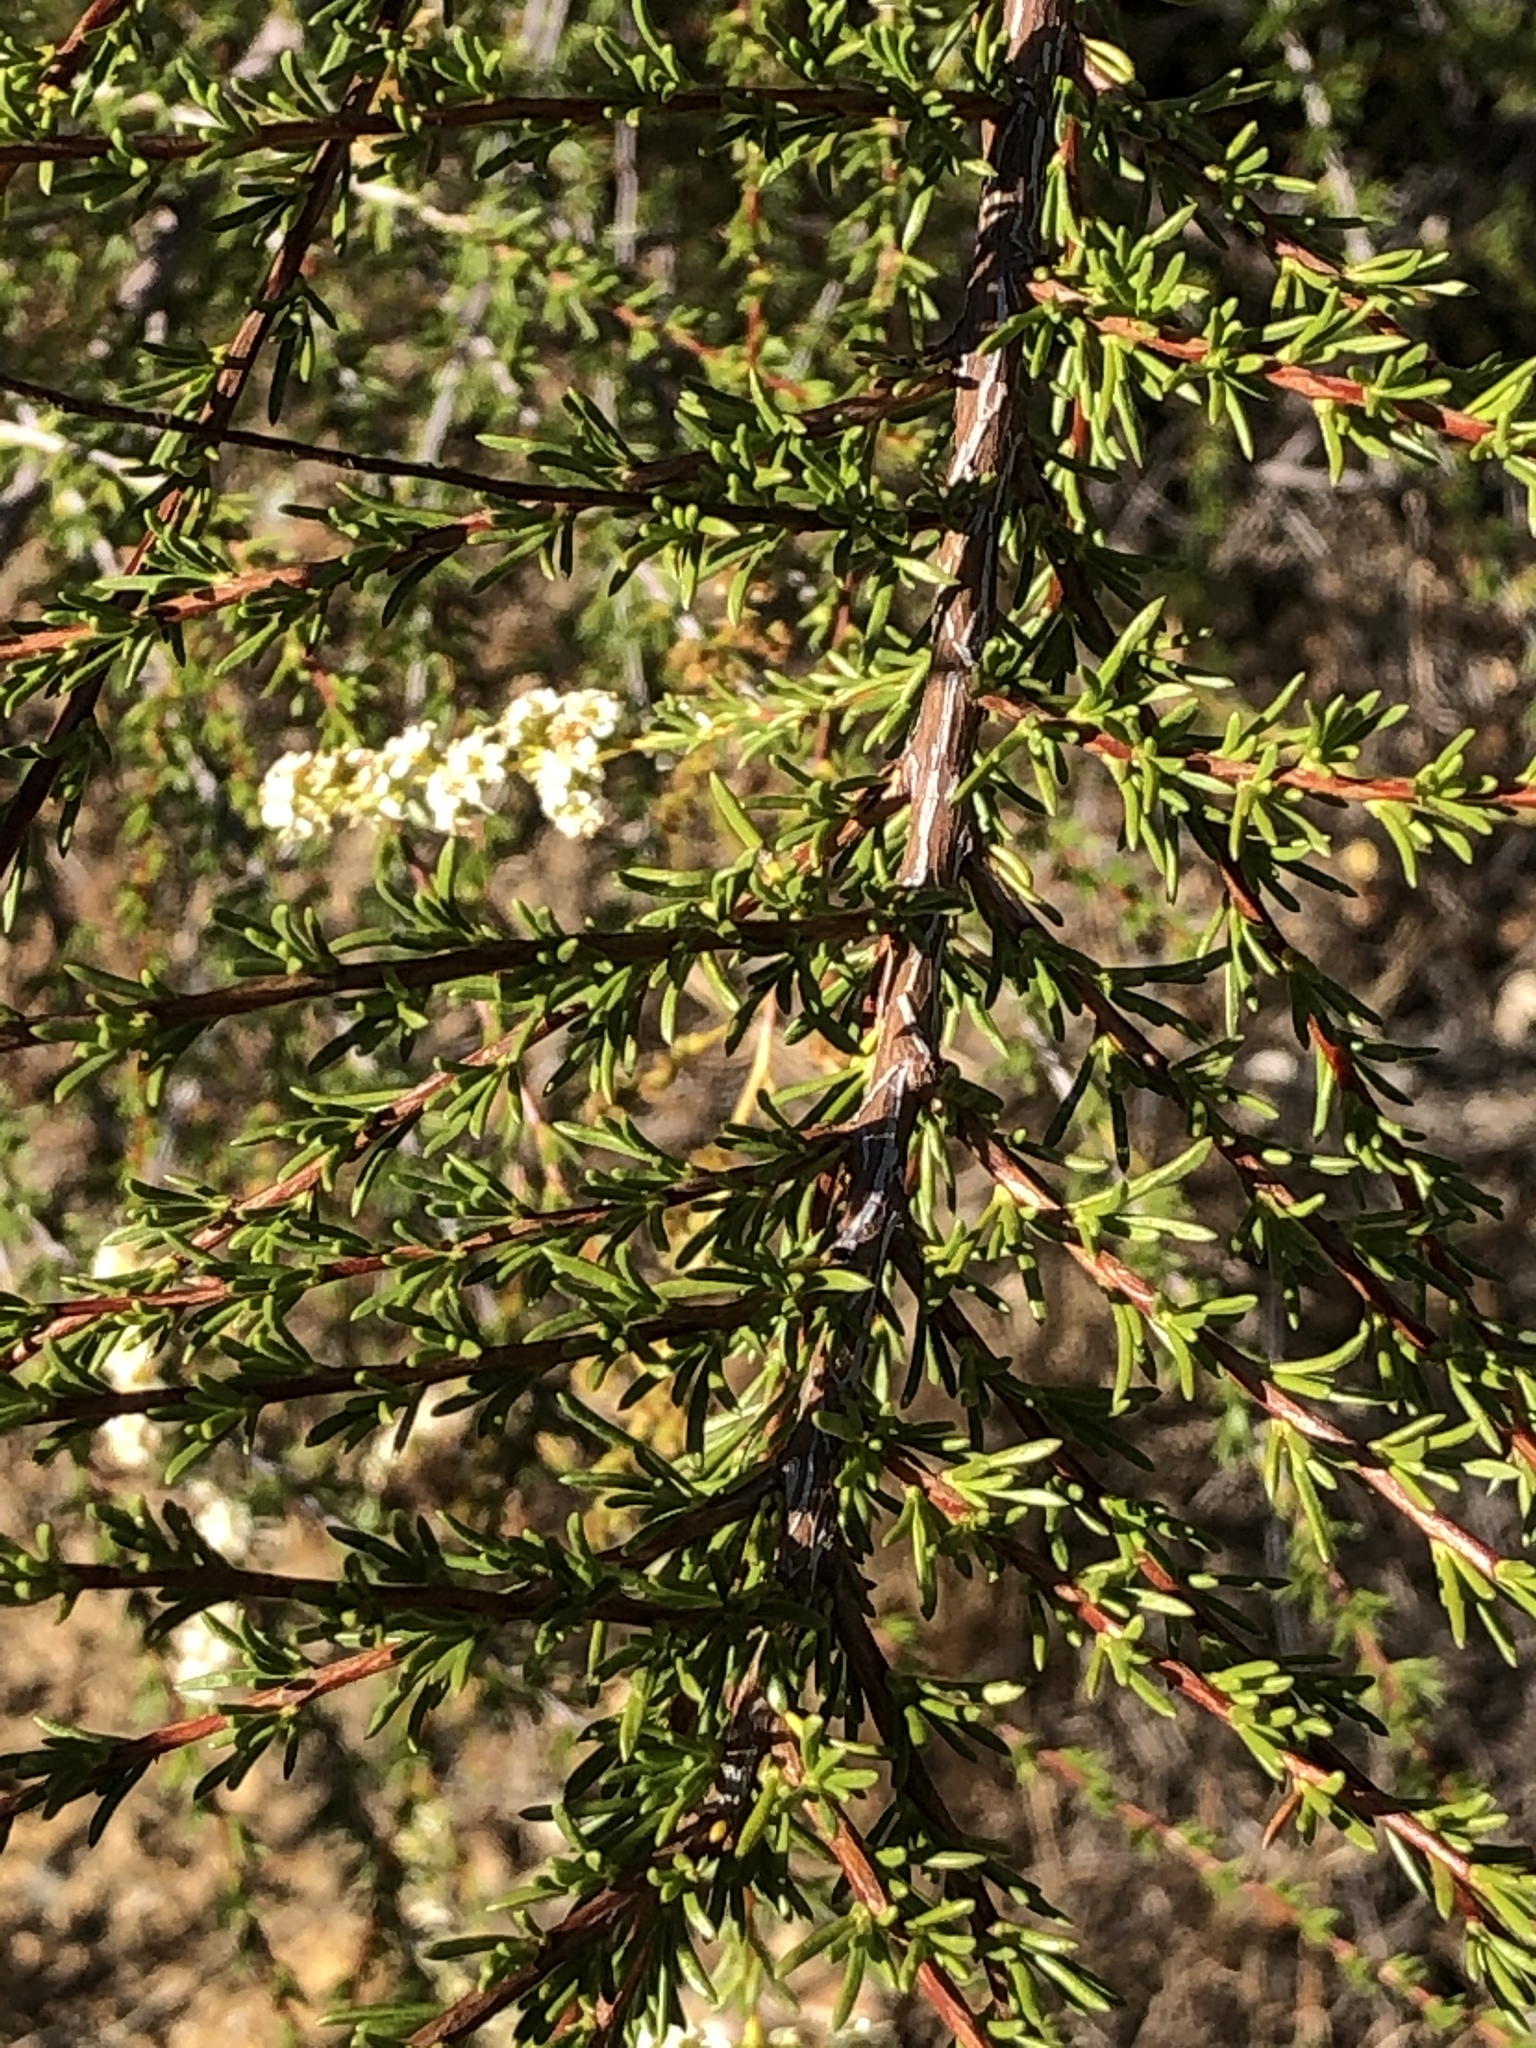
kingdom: Plantae
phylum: Tracheophyta
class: Magnoliopsida
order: Rosales
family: Rosaceae
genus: Adenostoma
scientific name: Adenostoma fasciculatum
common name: Chamise
